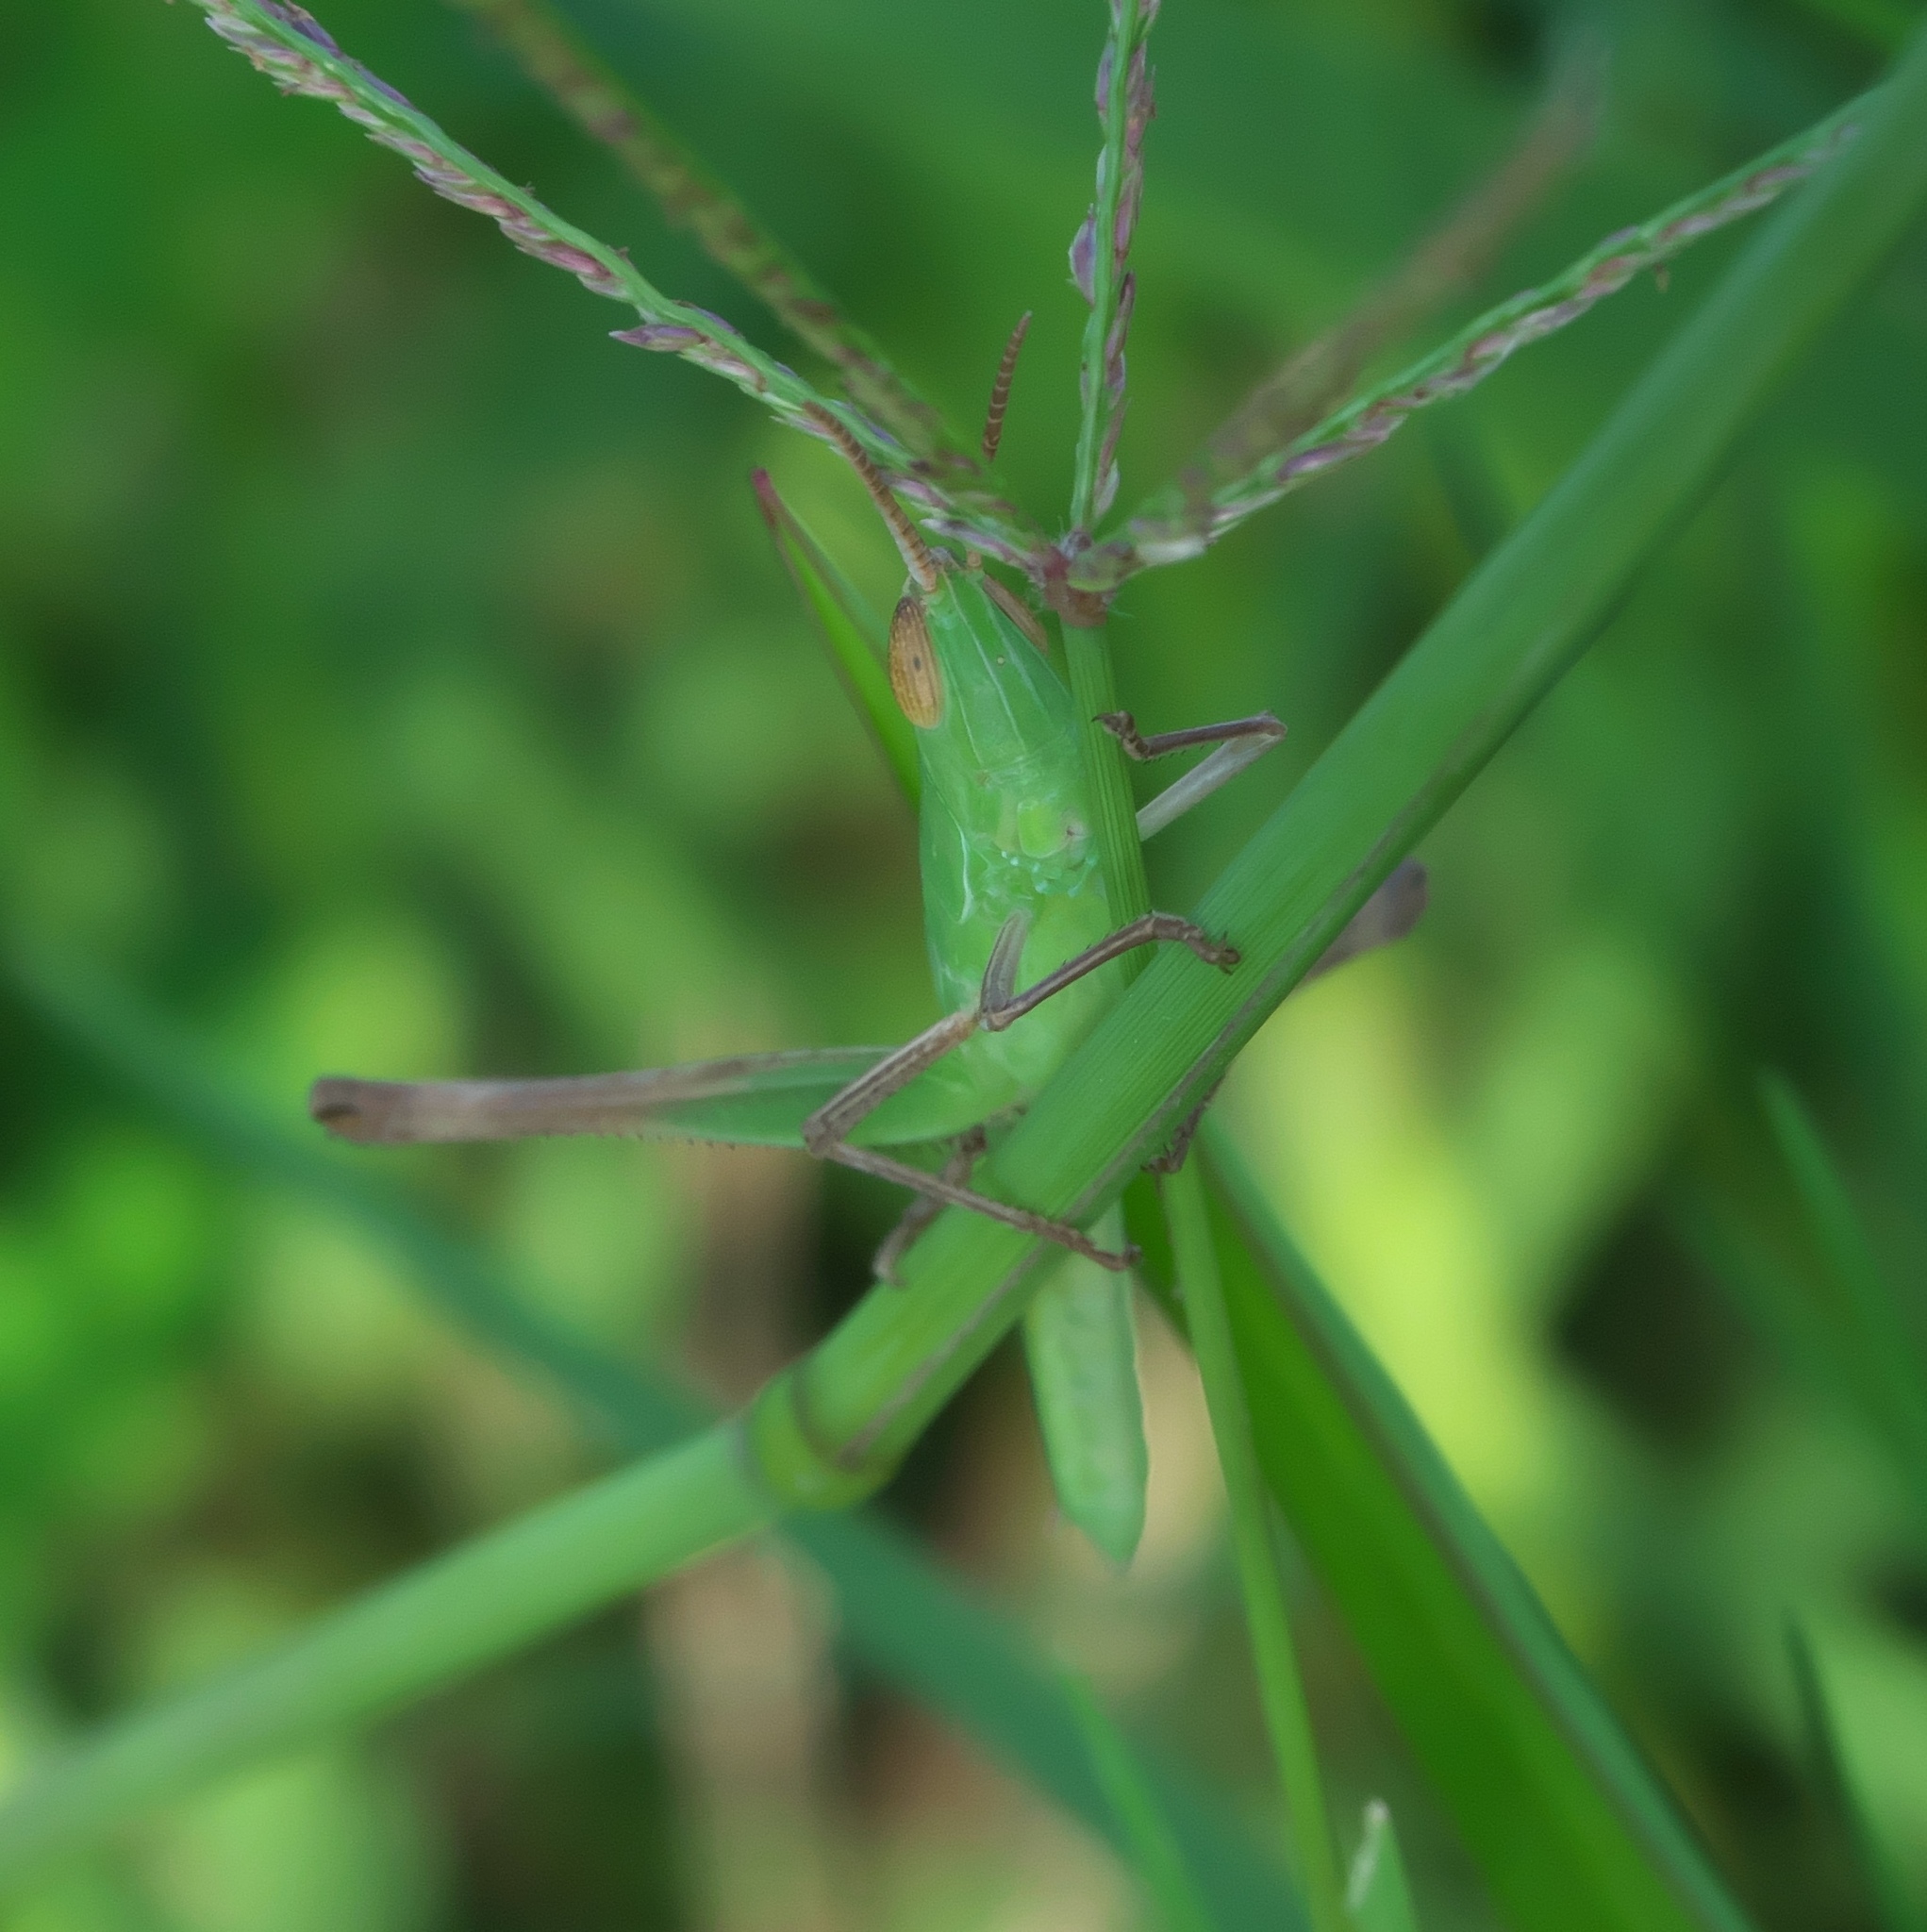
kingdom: Animalia
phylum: Arthropoda
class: Insecta
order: Orthoptera
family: Acrididae
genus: Syrbula
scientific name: Syrbula admirabilis
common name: Handsome grasshopper
